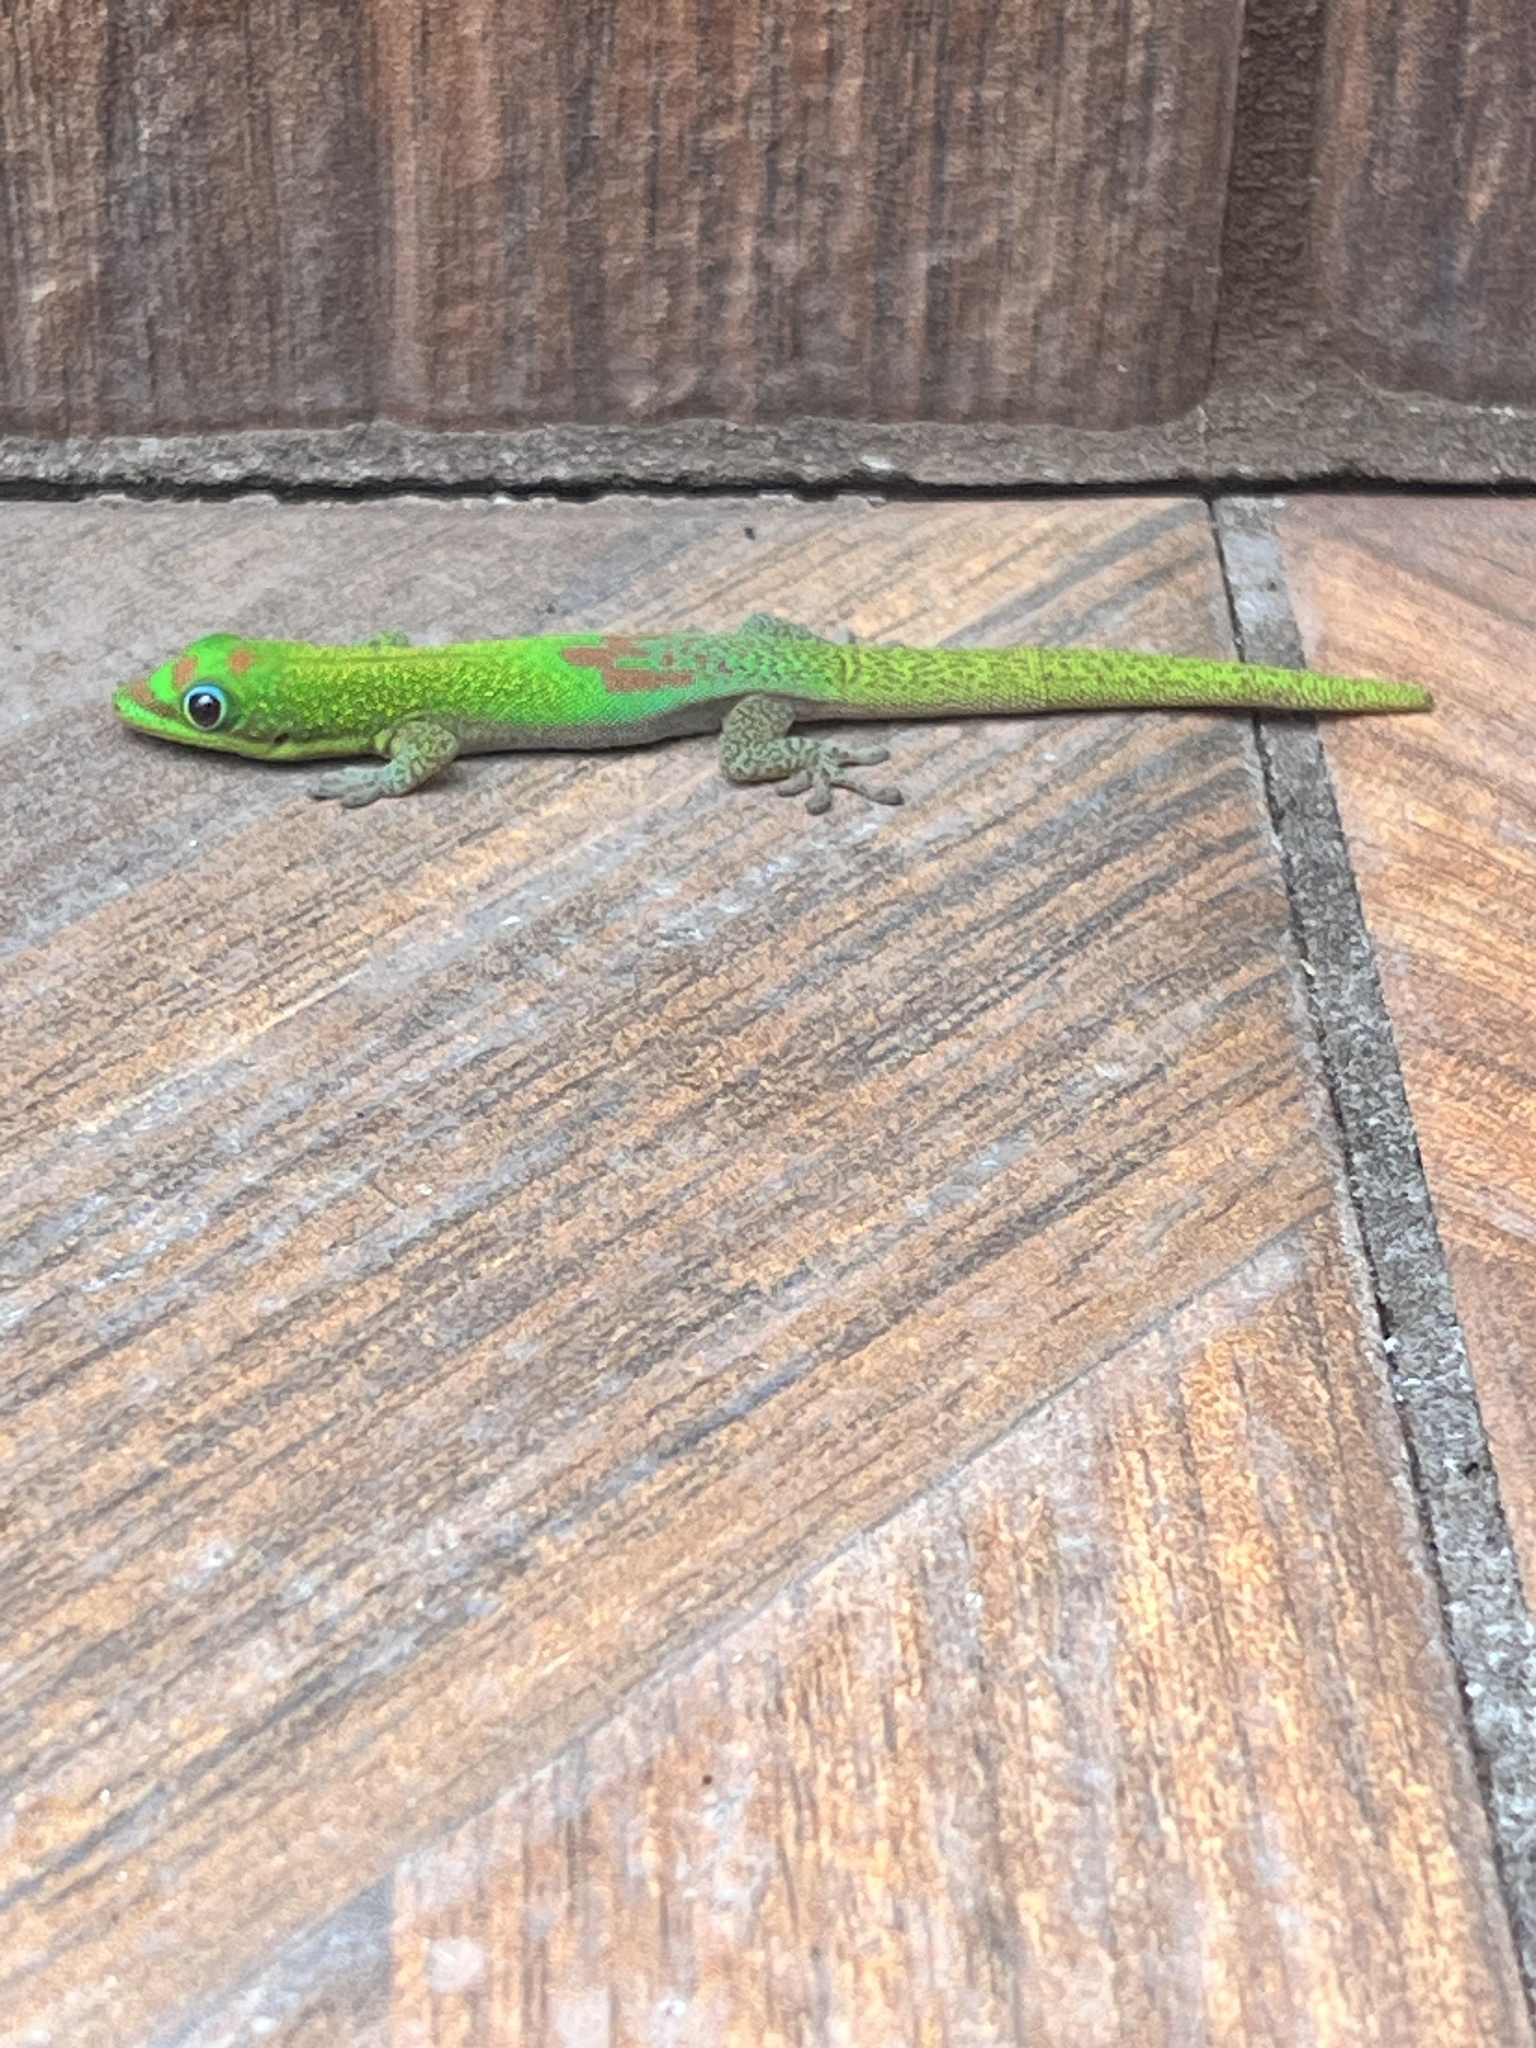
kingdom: Animalia
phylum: Chordata
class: Squamata
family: Gekkonidae
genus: Phelsuma
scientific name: Phelsuma laticauda
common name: Gold dust day gecko
